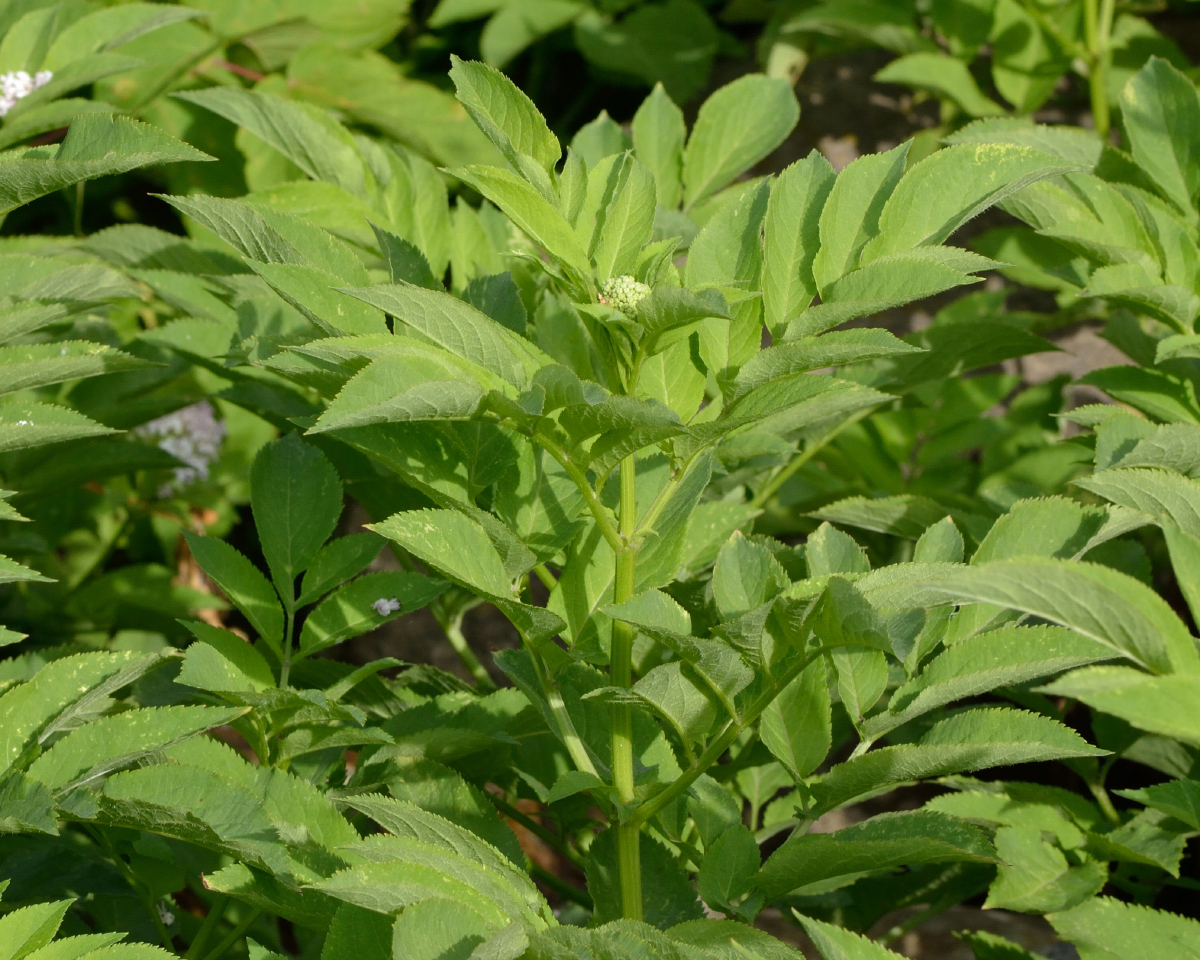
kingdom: Plantae
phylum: Tracheophyta
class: Magnoliopsida
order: Dipsacales
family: Viburnaceae
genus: Sambucus
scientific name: Sambucus ebulus
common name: Dwarf elder
